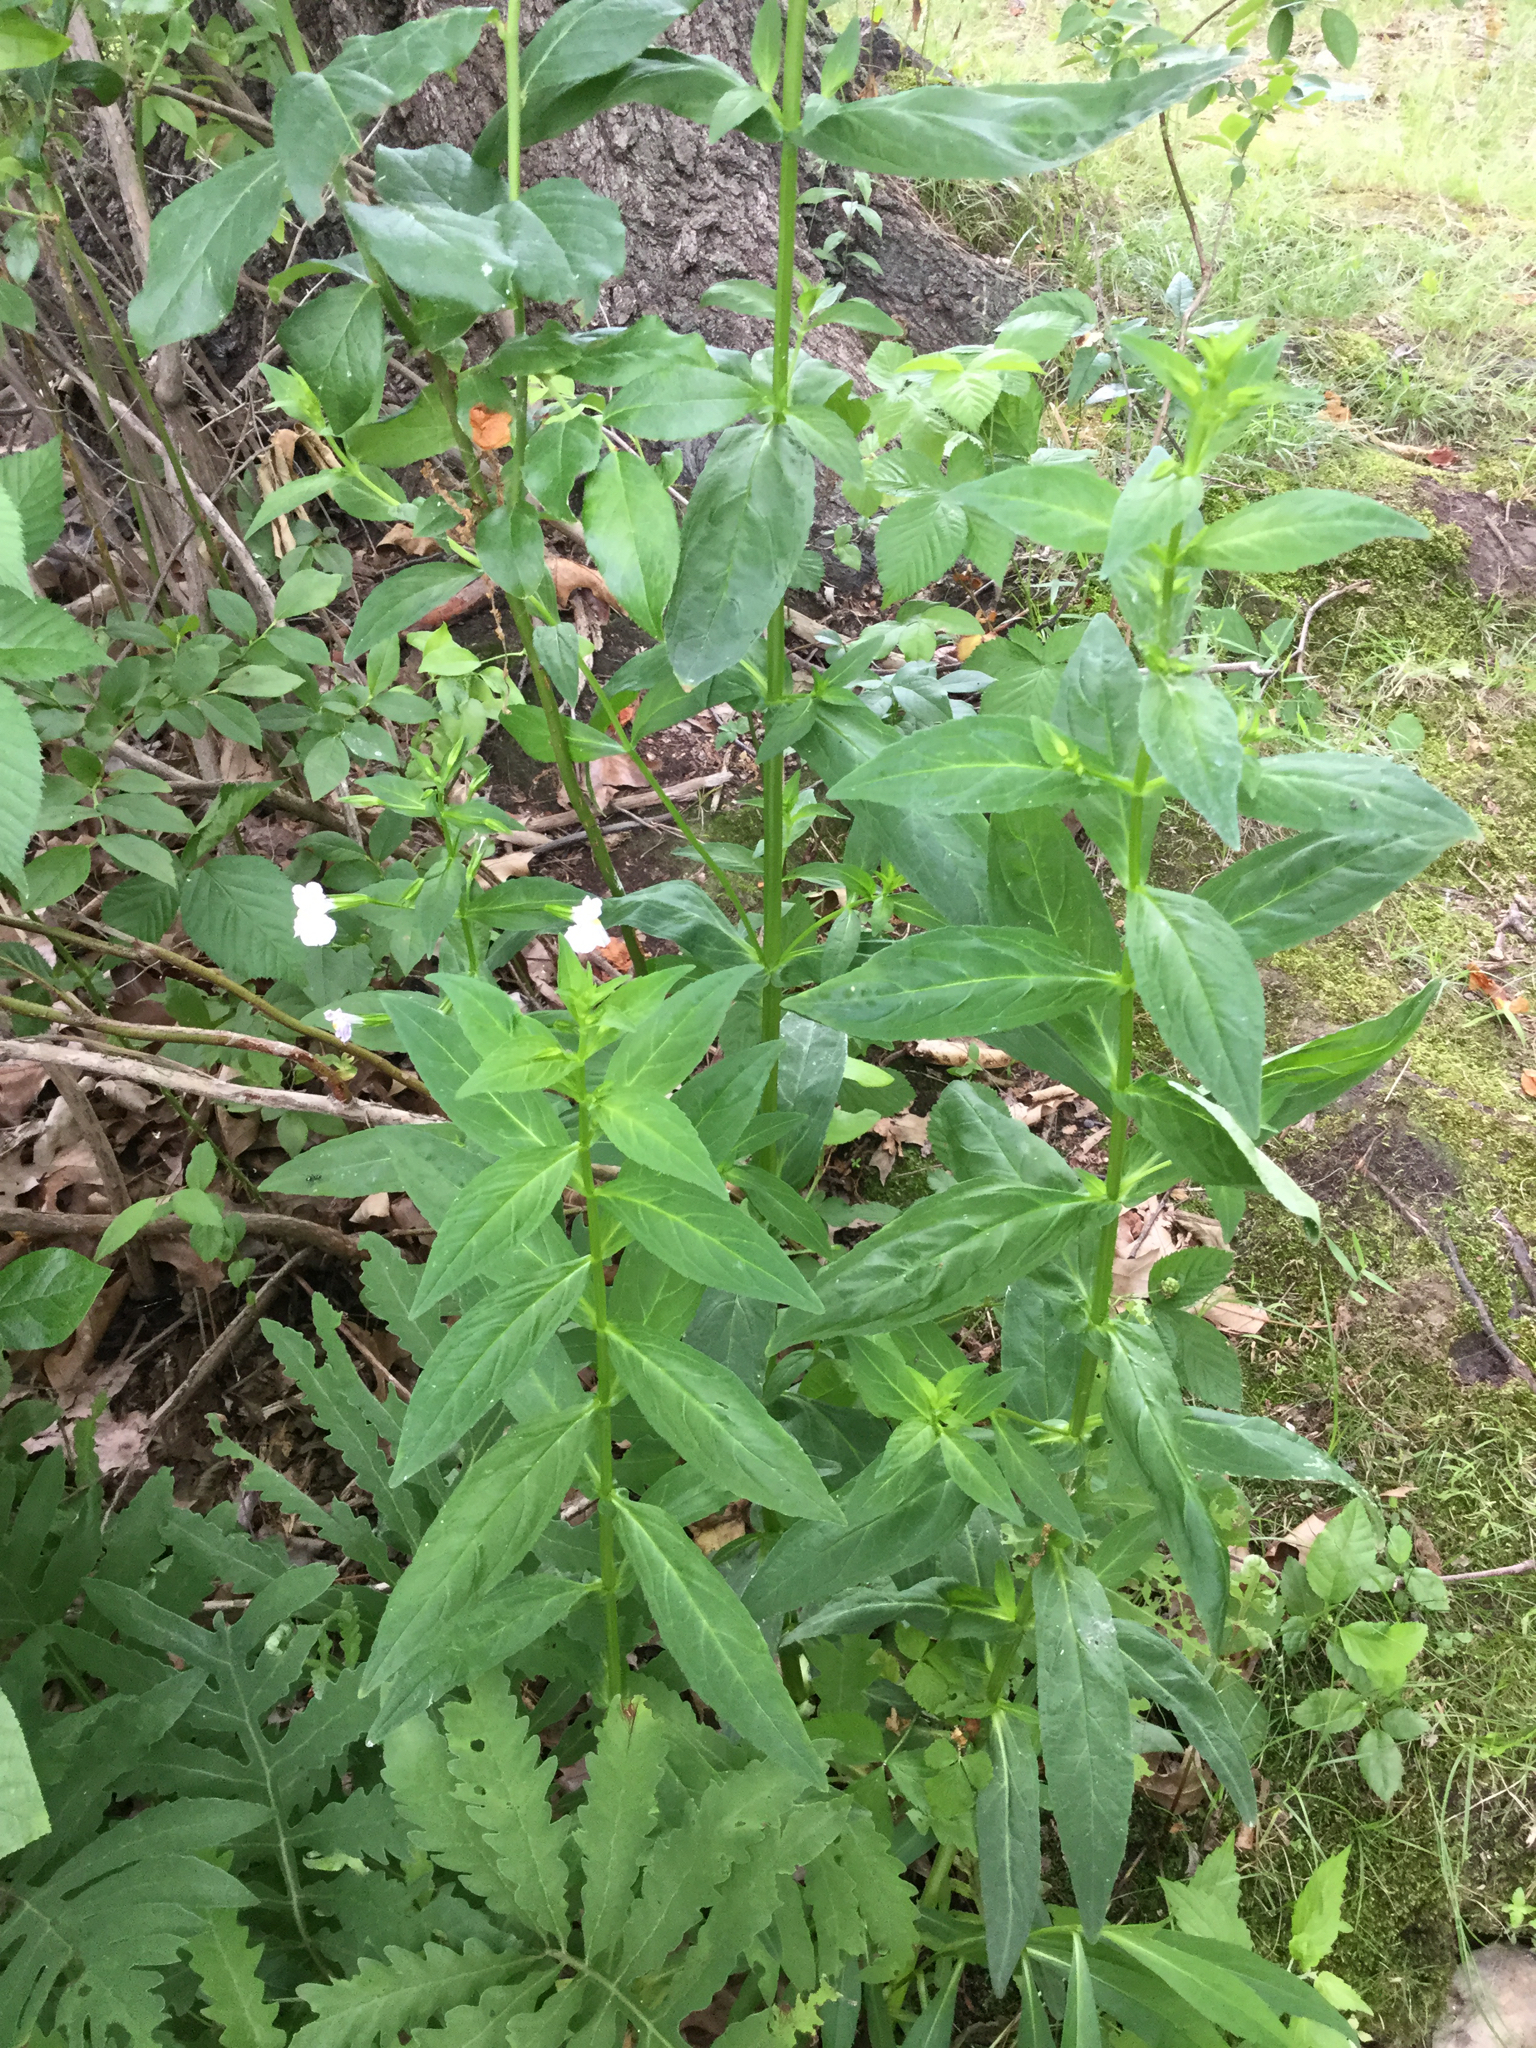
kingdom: Plantae
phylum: Tracheophyta
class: Magnoliopsida
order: Lamiales
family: Phrymaceae
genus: Mimulus
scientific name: Mimulus ringens
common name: Allegheny monkeyflower
